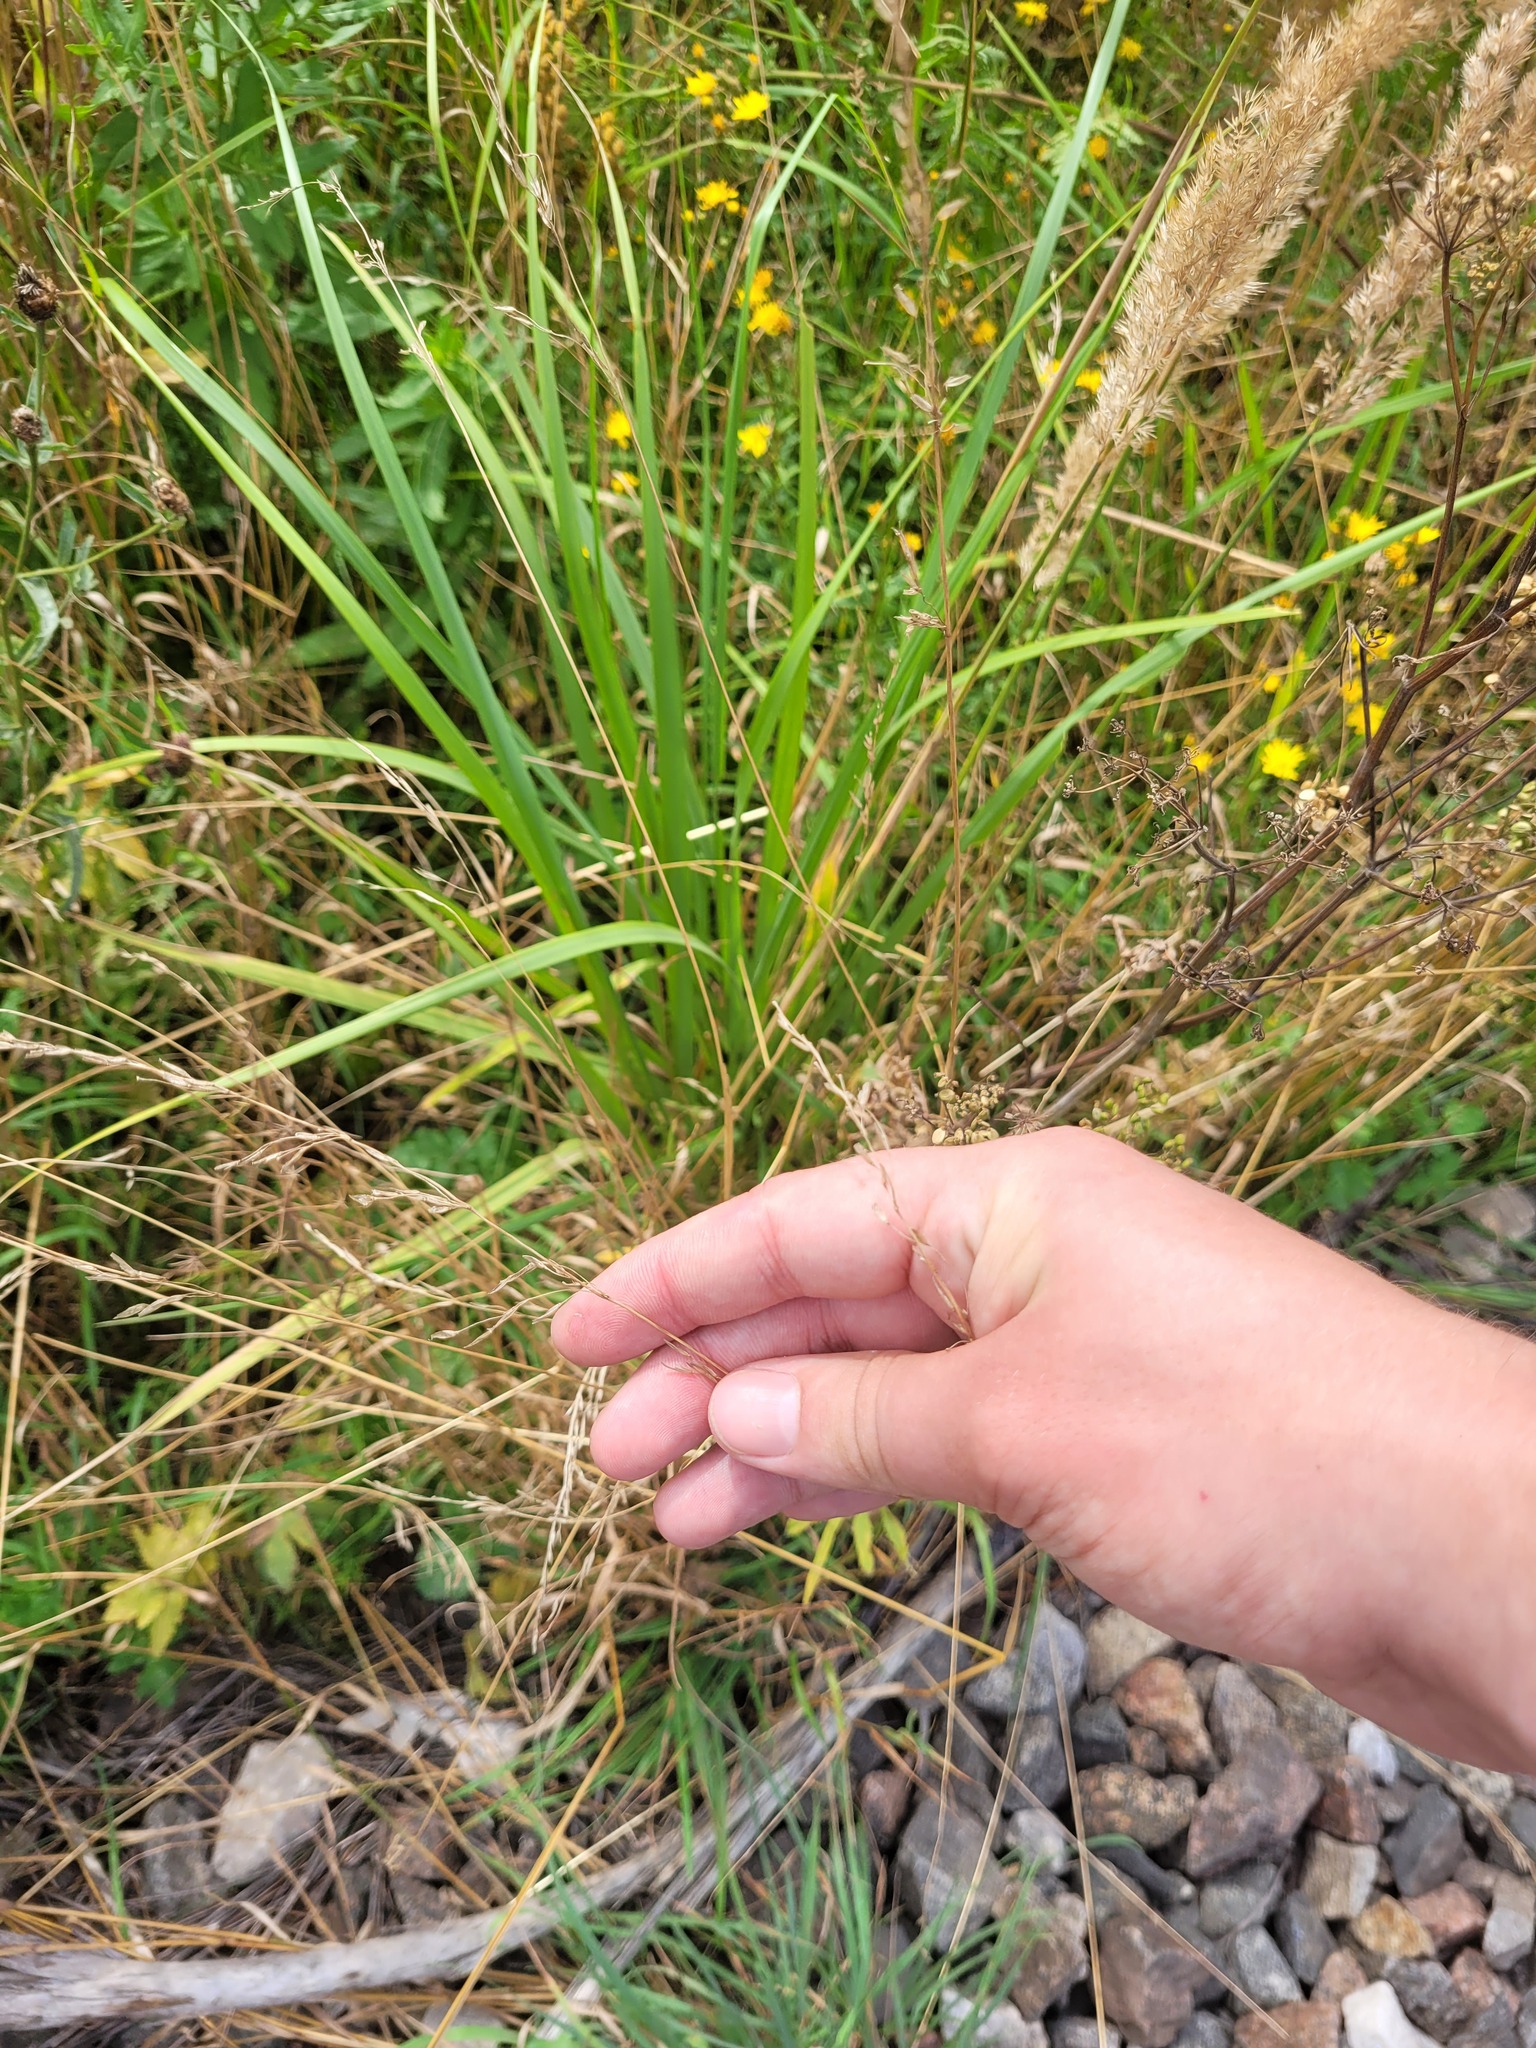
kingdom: Plantae
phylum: Tracheophyta
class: Liliopsida
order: Poales
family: Poaceae
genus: Arrhenatherum
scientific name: Arrhenatherum elatius
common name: Tall oatgrass
